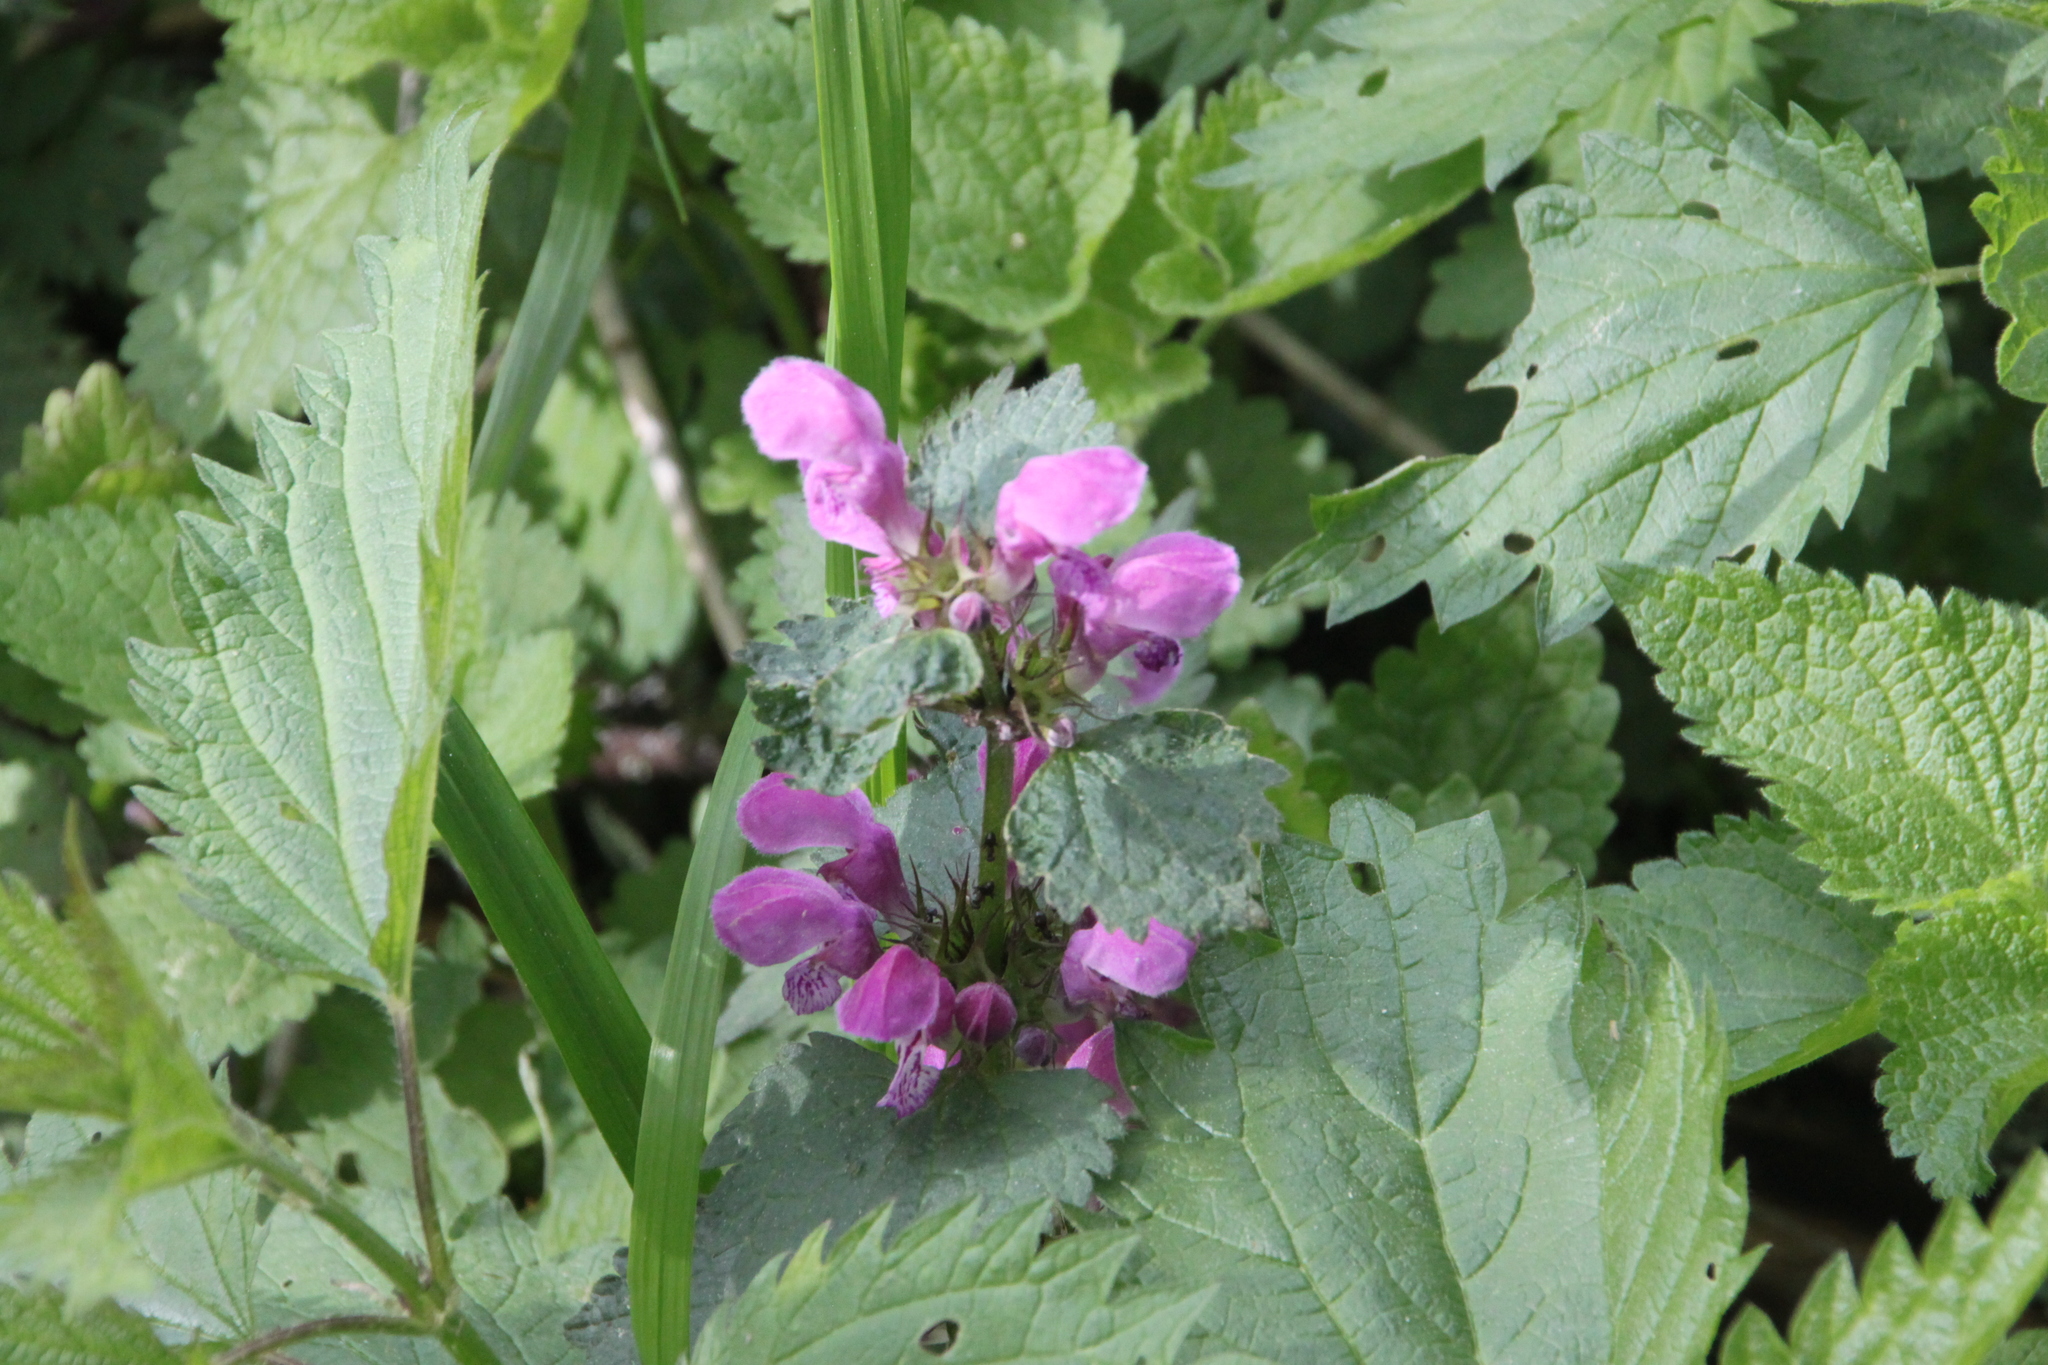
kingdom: Plantae
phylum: Tracheophyta
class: Magnoliopsida
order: Lamiales
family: Lamiaceae
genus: Lamium
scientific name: Lamium maculatum
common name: Spotted dead-nettle
